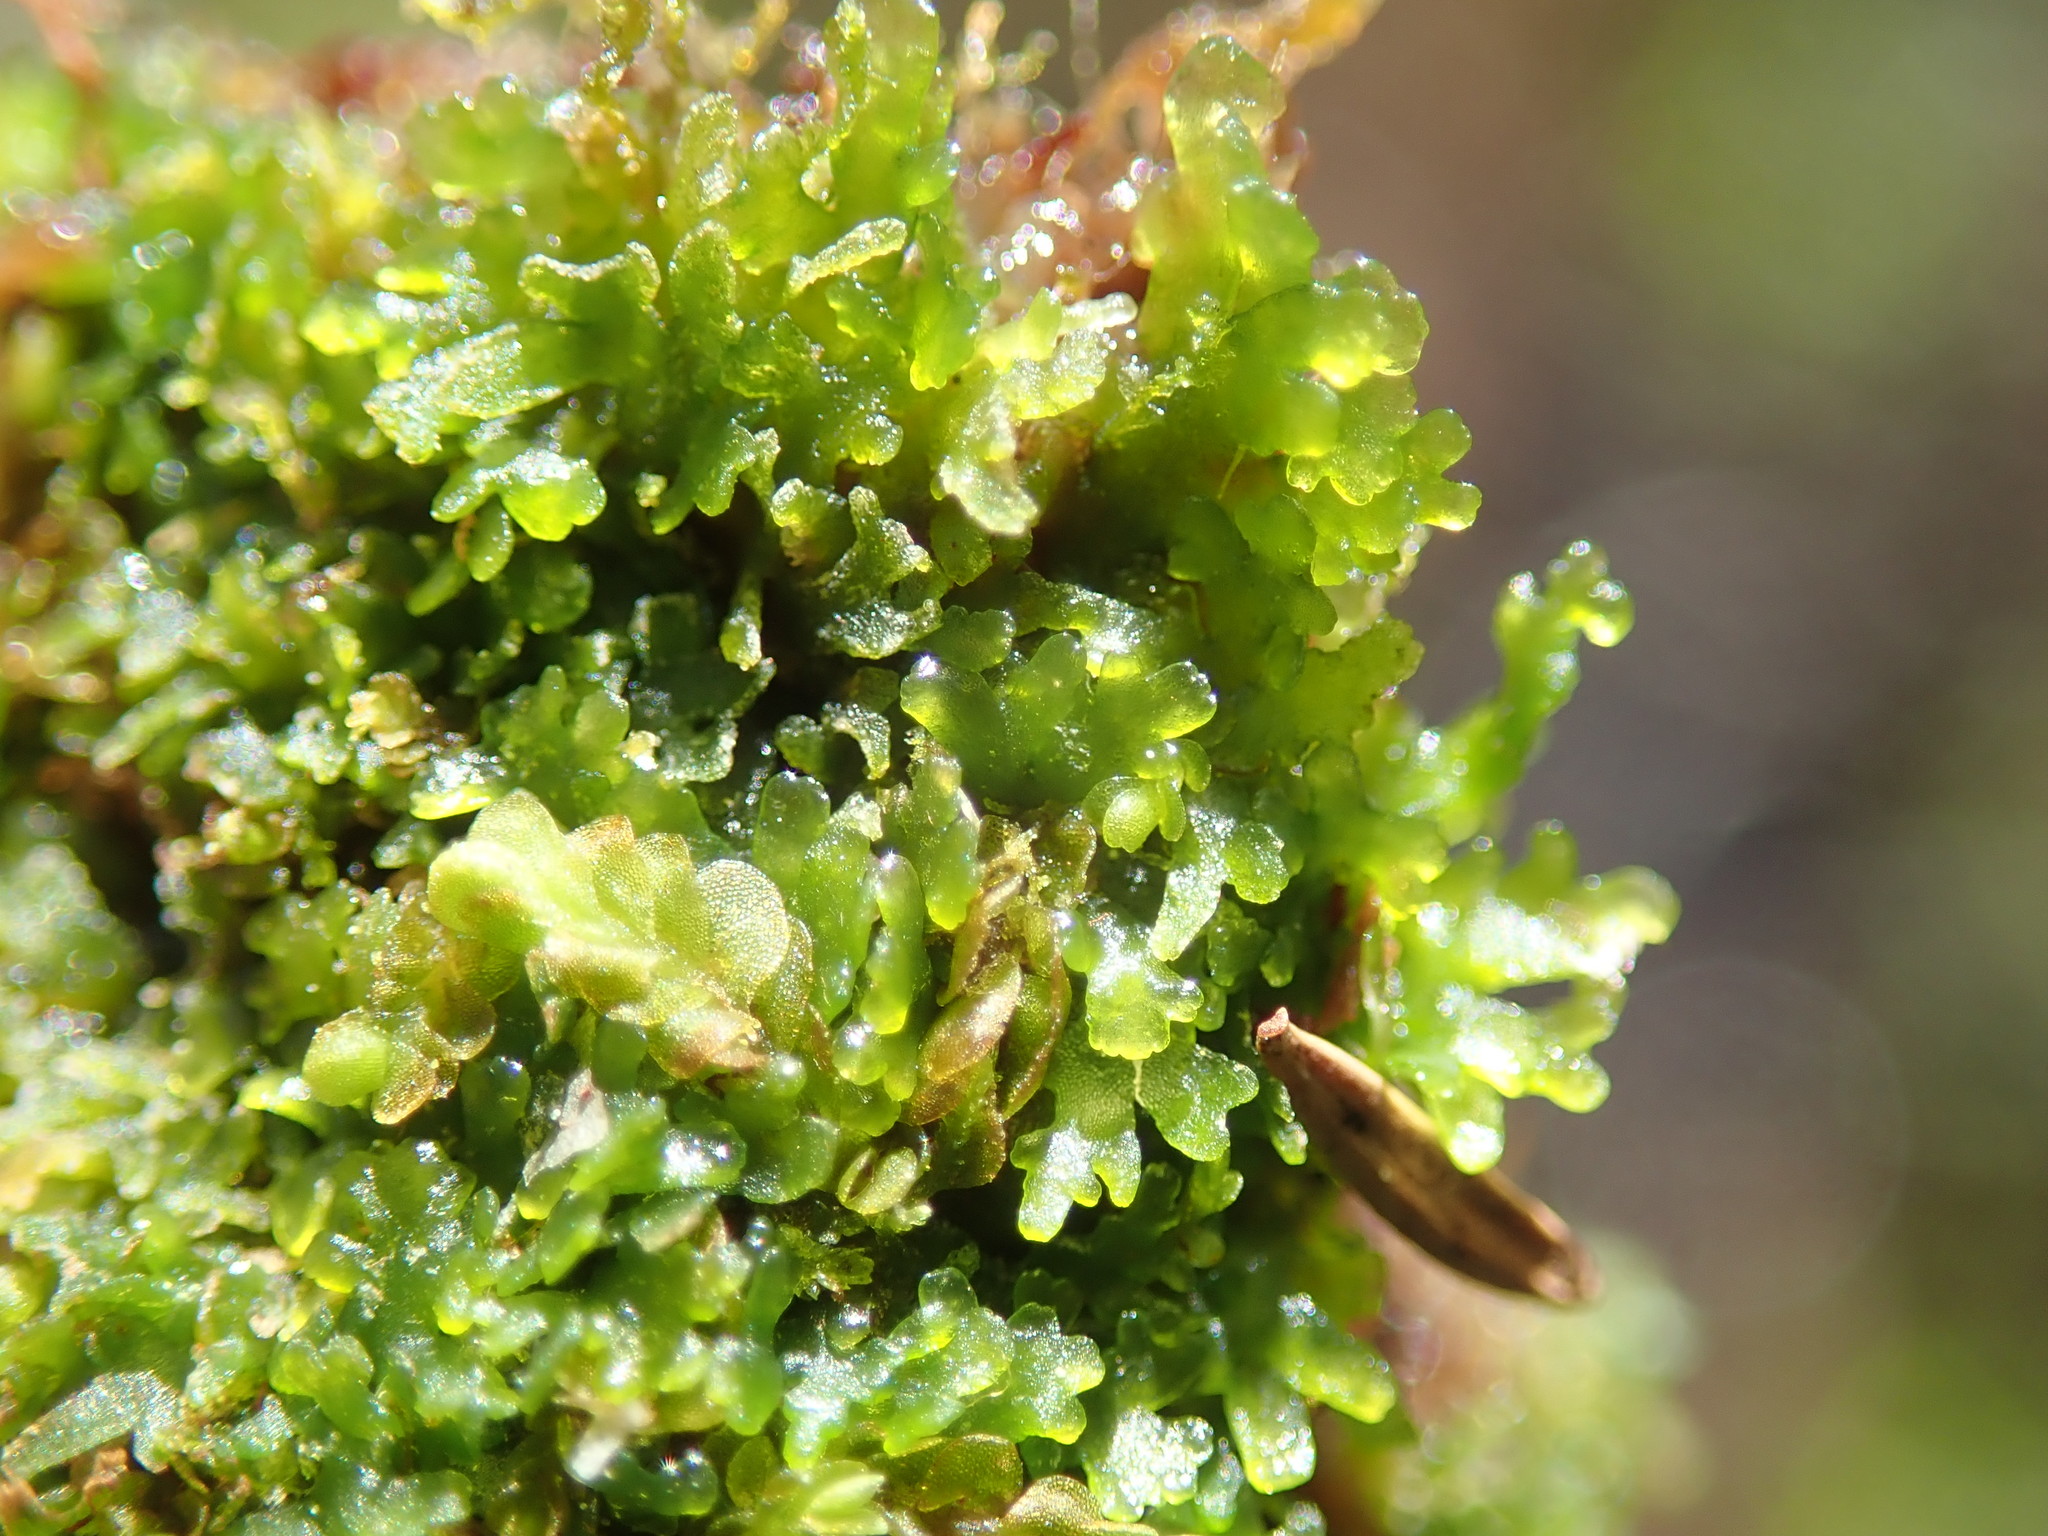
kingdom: Plantae
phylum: Marchantiophyta
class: Jungermanniopsida
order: Metzgeriales
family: Aneuraceae
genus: Riccardia
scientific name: Riccardia chamedryfolia
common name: Jagged germanderwort
